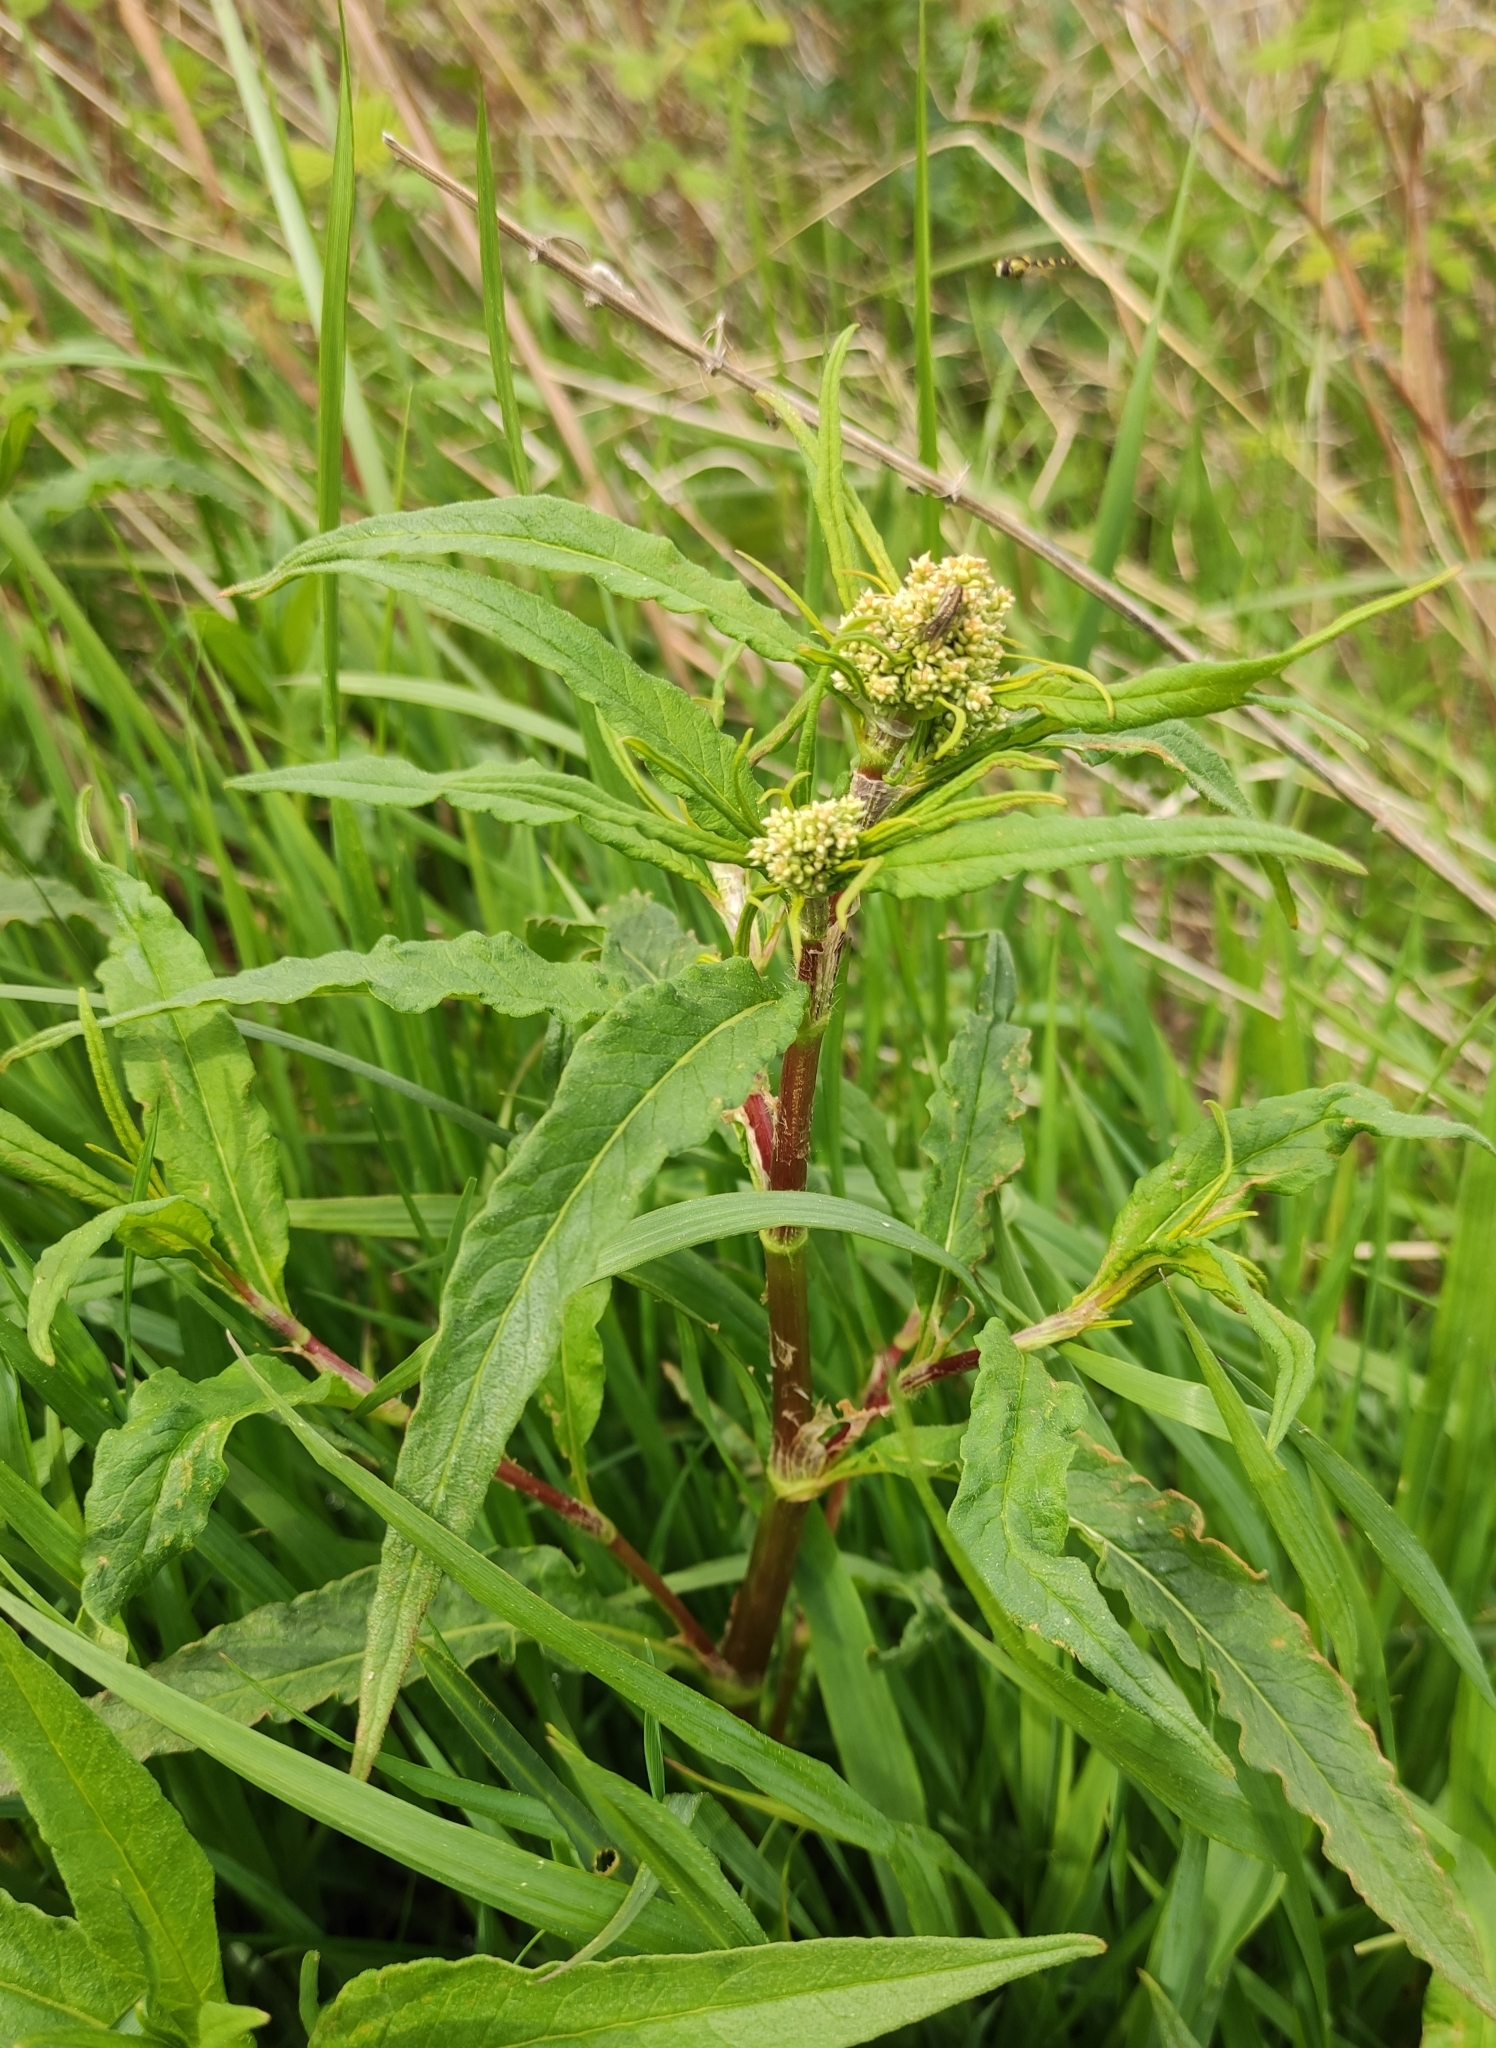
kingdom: Plantae
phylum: Tracheophyta
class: Magnoliopsida
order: Caryophyllales
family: Polygonaceae
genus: Koenigia
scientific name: Koenigia alpina
